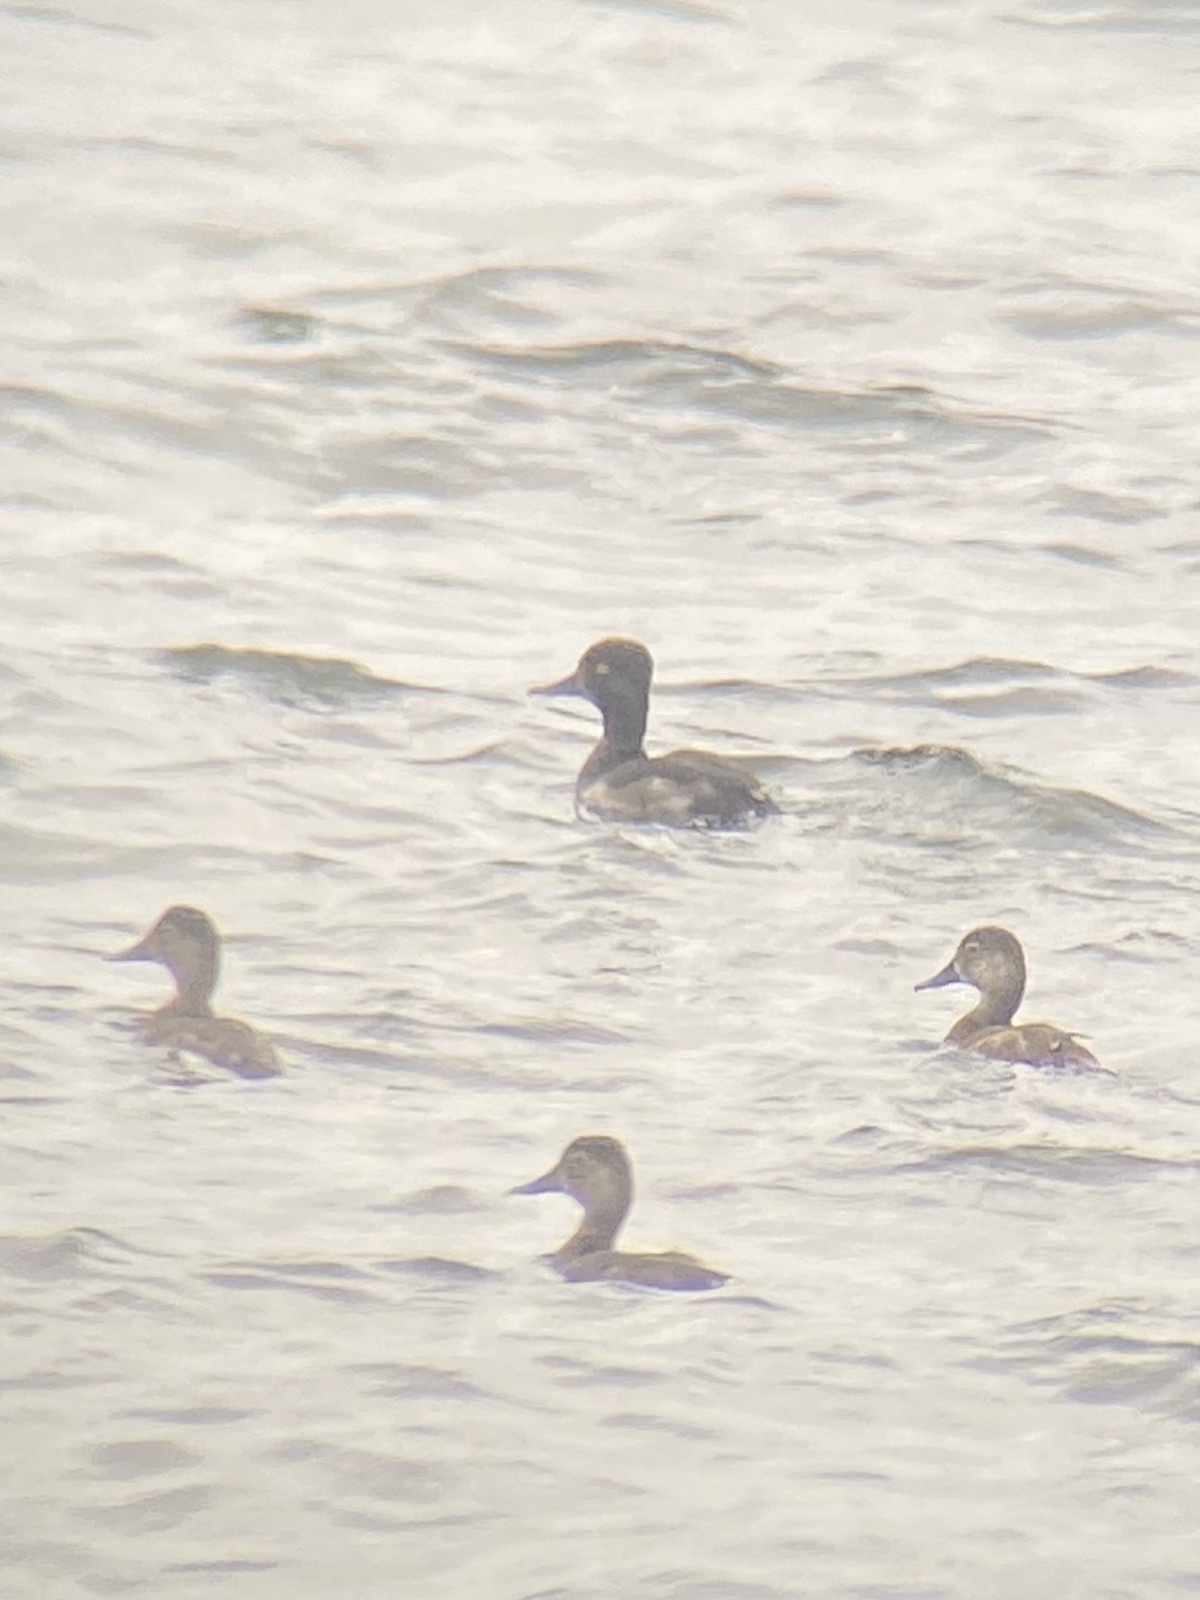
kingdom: Animalia
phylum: Chordata
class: Aves
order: Anseriformes
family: Anatidae
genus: Aythya
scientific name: Aythya collaris
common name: Ring-necked duck
